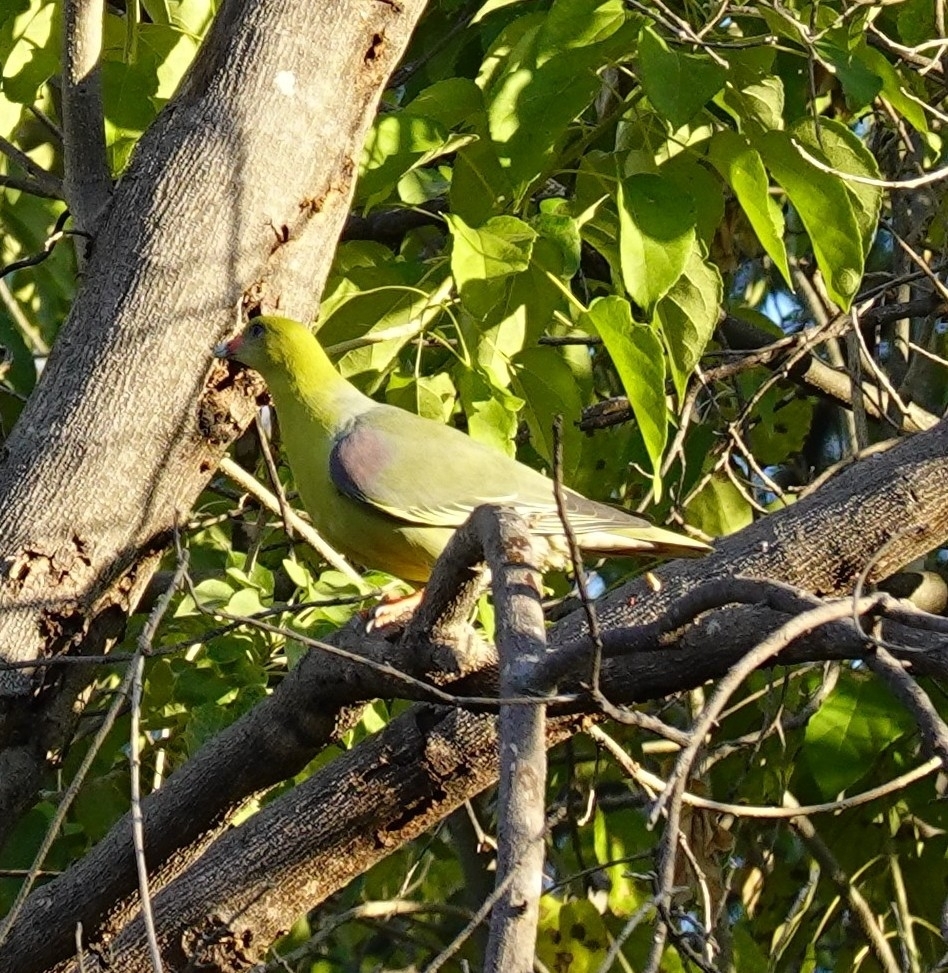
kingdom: Animalia
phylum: Chordata
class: Aves
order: Columbiformes
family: Columbidae
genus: Treron
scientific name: Treron calvus
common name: African green pigeon
